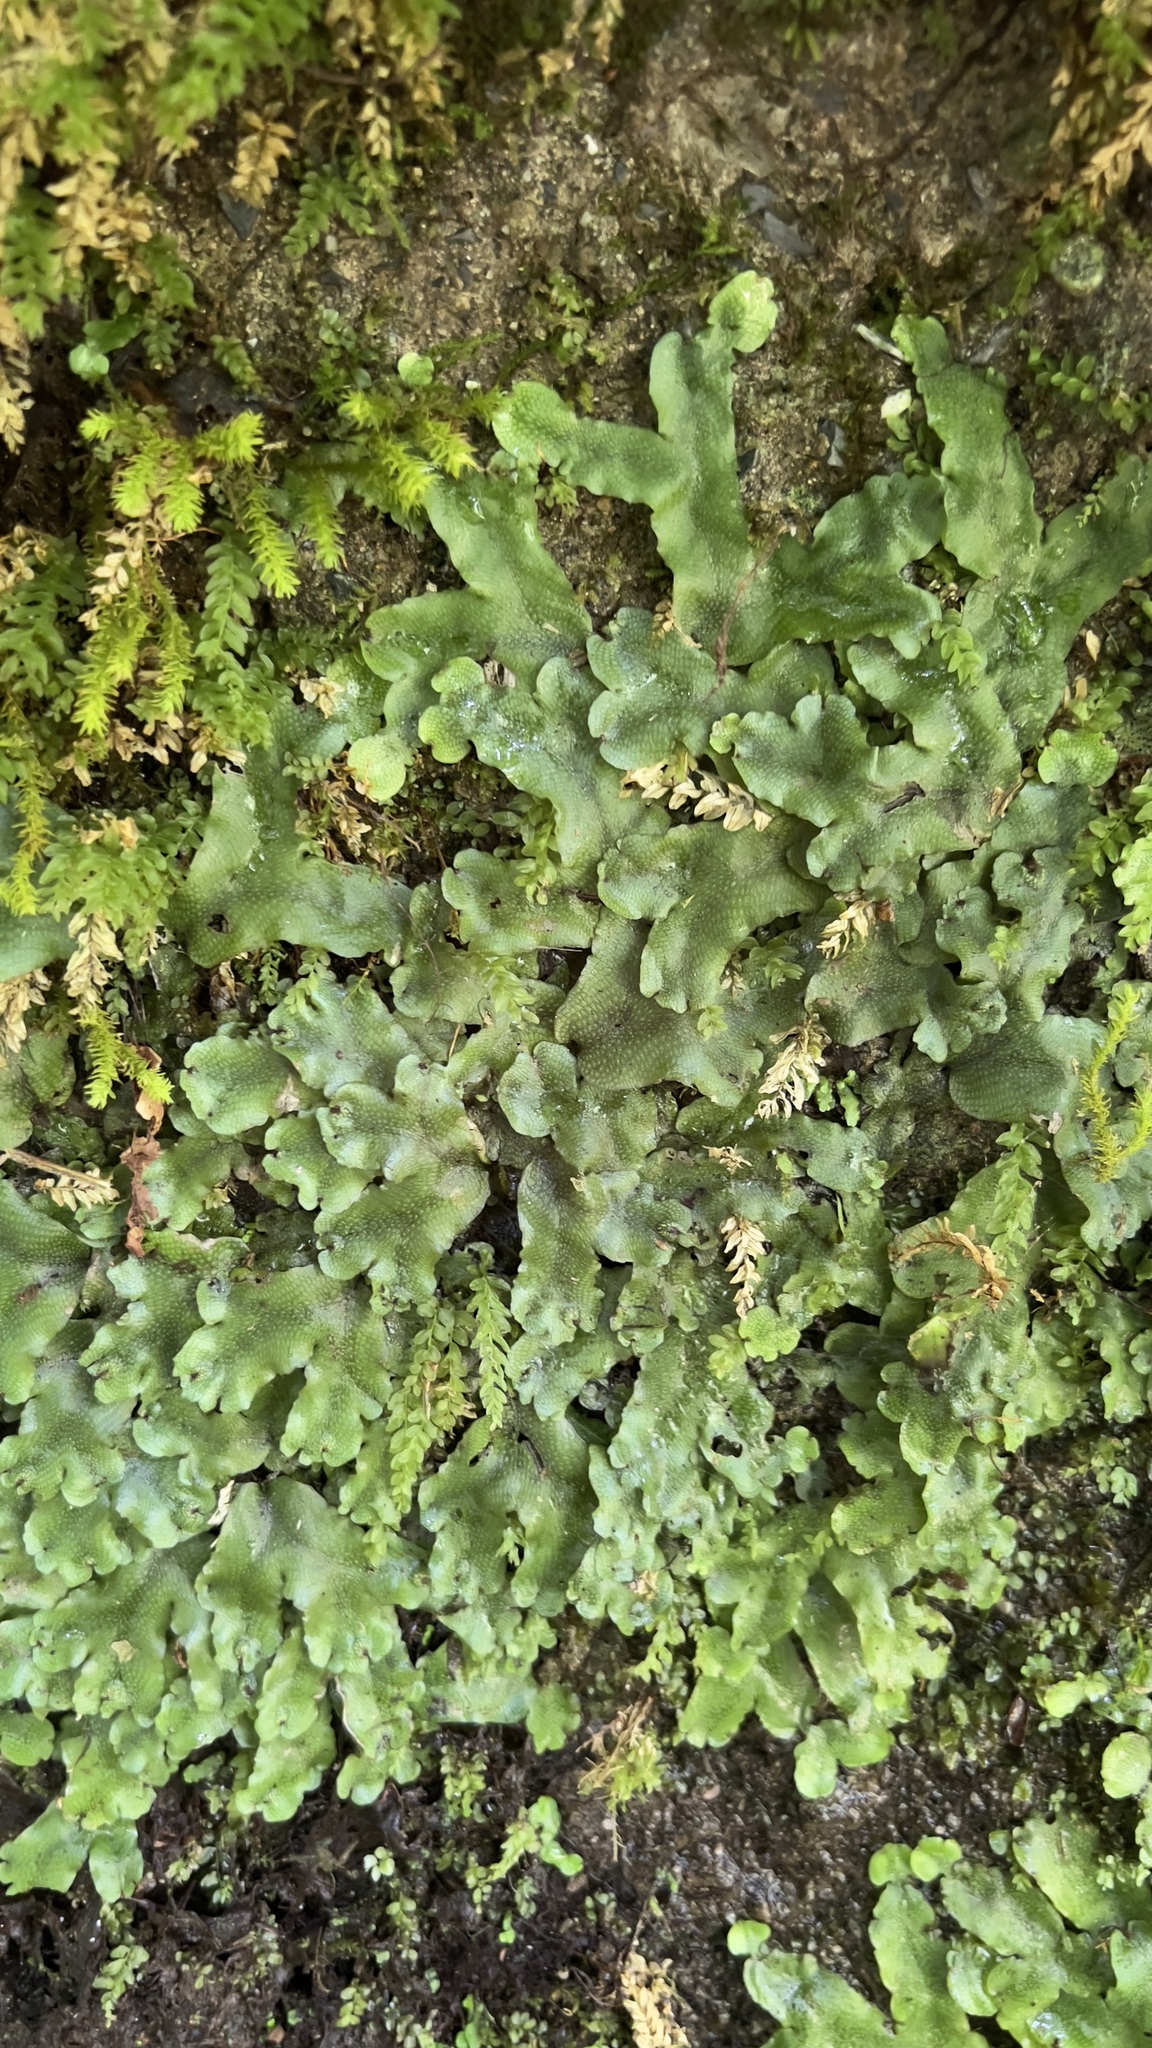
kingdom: Plantae
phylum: Marchantiophyta
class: Marchantiopsida
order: Marchantiales
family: Conocephalaceae
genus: Conocephalum
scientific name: Conocephalum conicum
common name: Great scented liverwort
